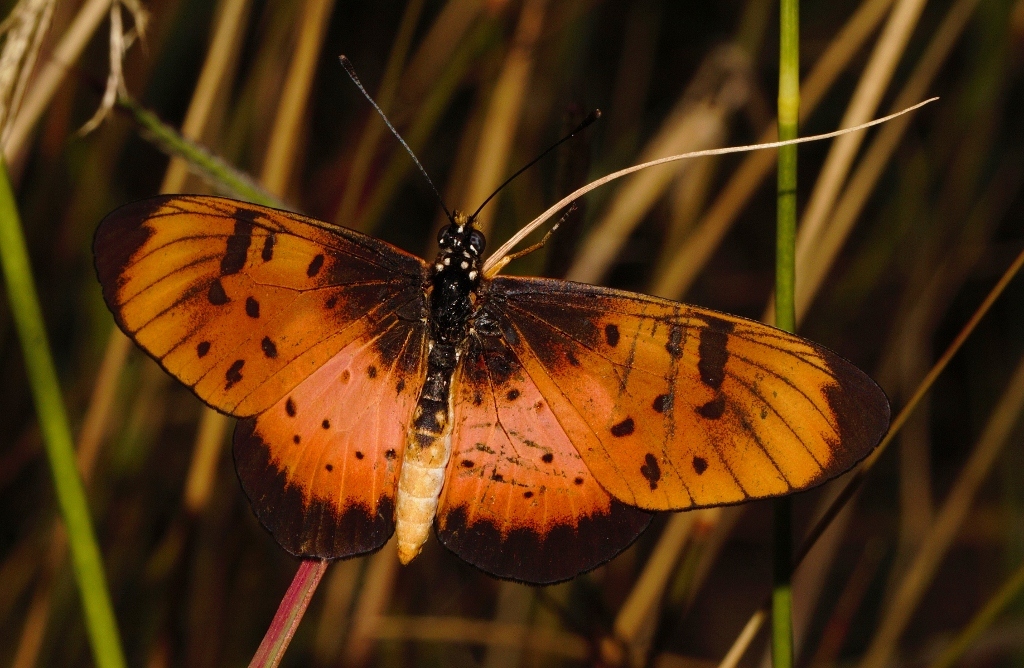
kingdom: Animalia
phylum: Arthropoda
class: Insecta
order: Lepidoptera
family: Nymphalidae
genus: Stephenia
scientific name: Stephenia
